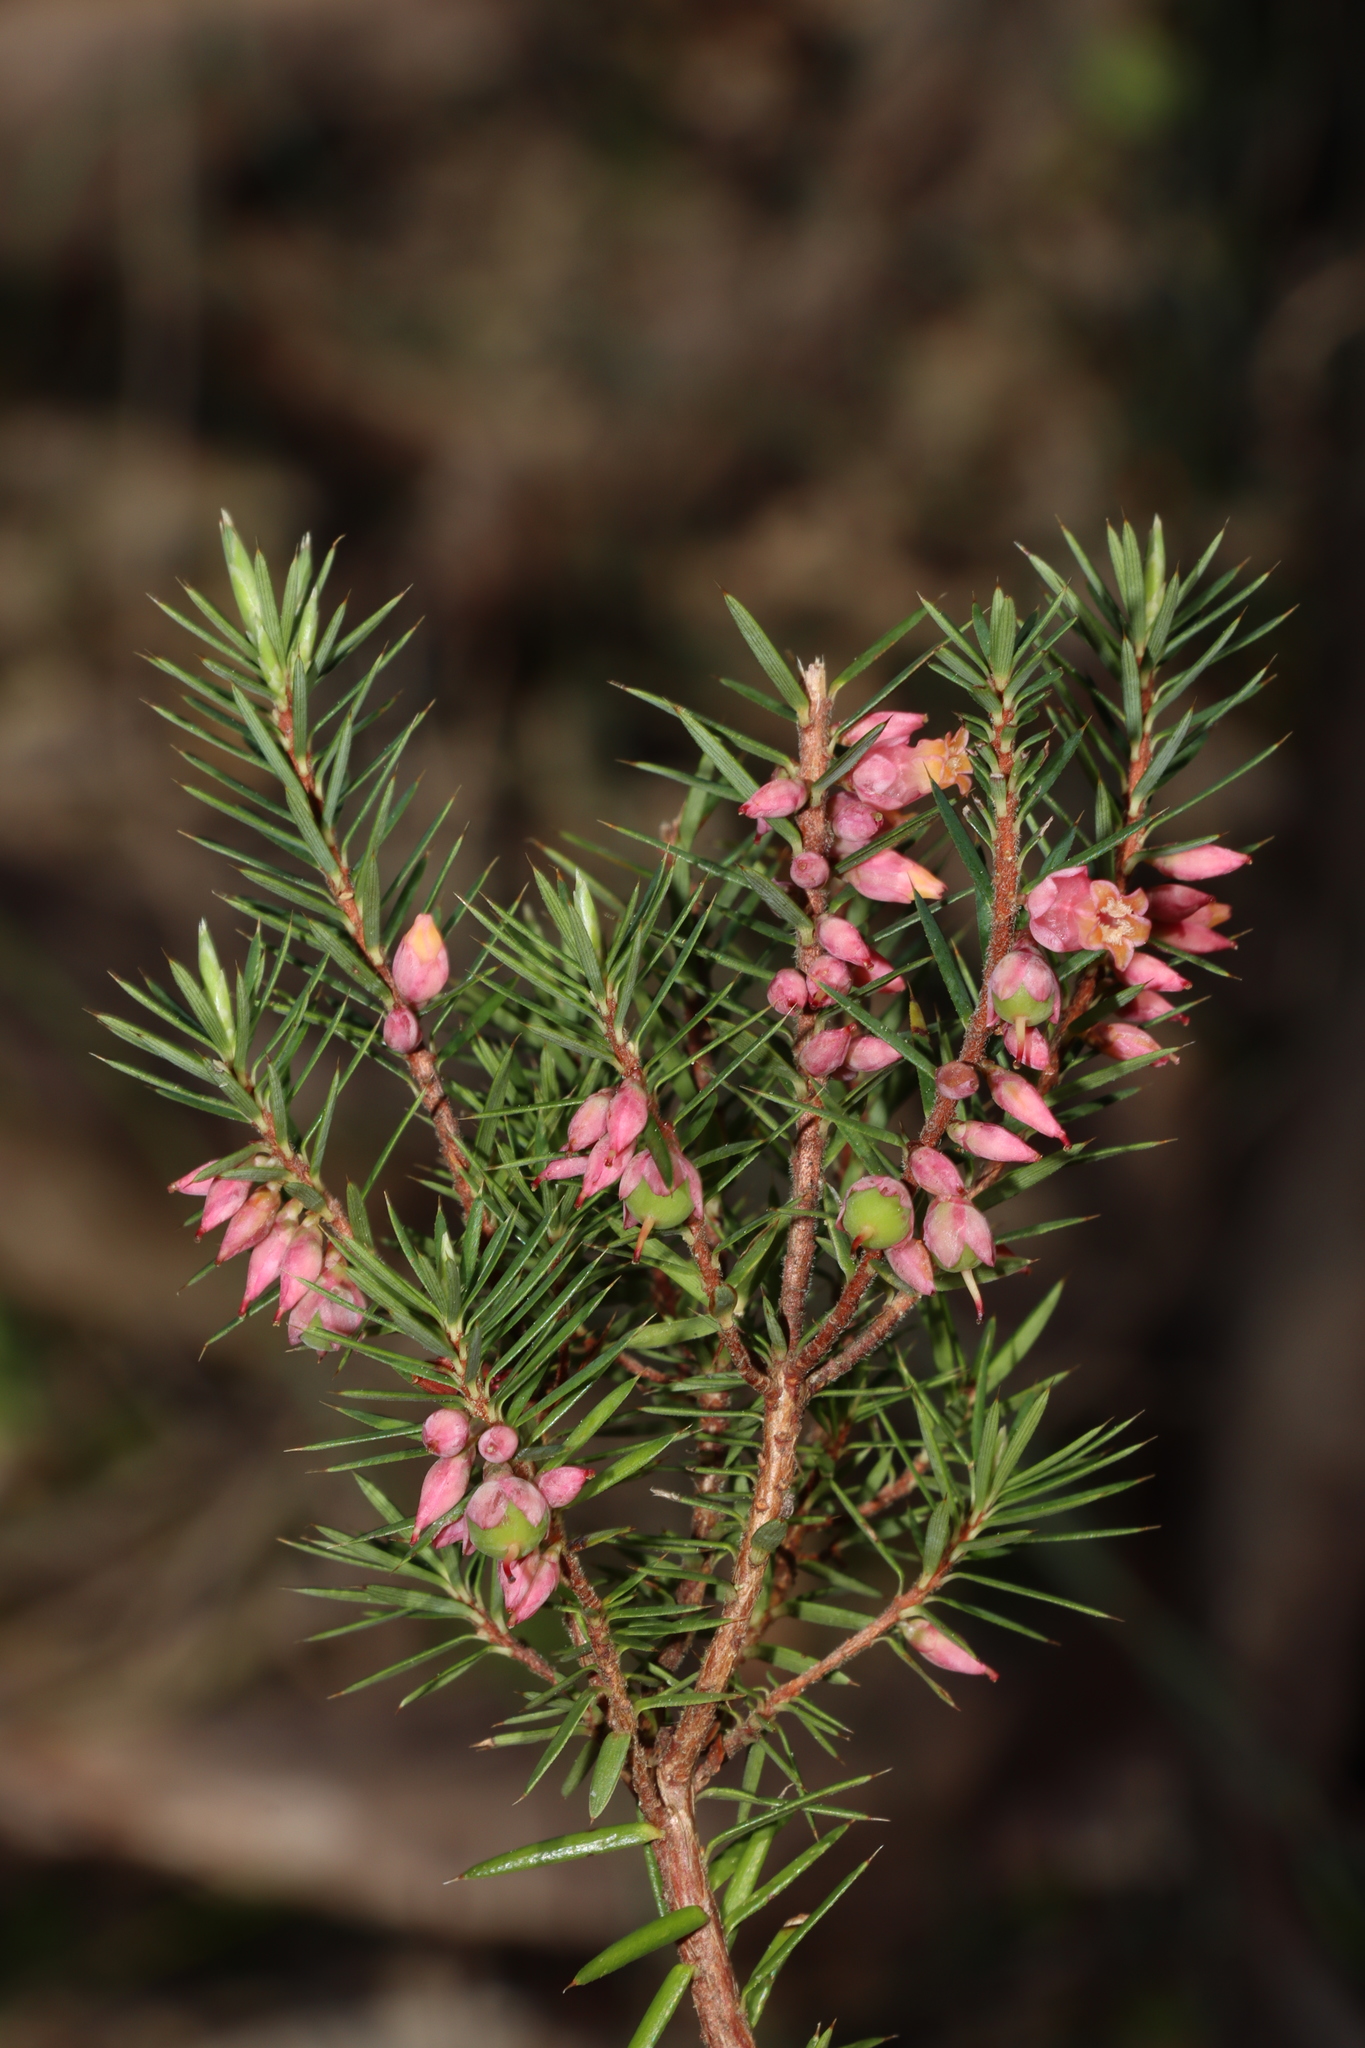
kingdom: Plantae
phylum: Tracheophyta
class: Magnoliopsida
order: Ericales
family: Ericaceae
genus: Brachyloma
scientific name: Brachyloma ericoides
